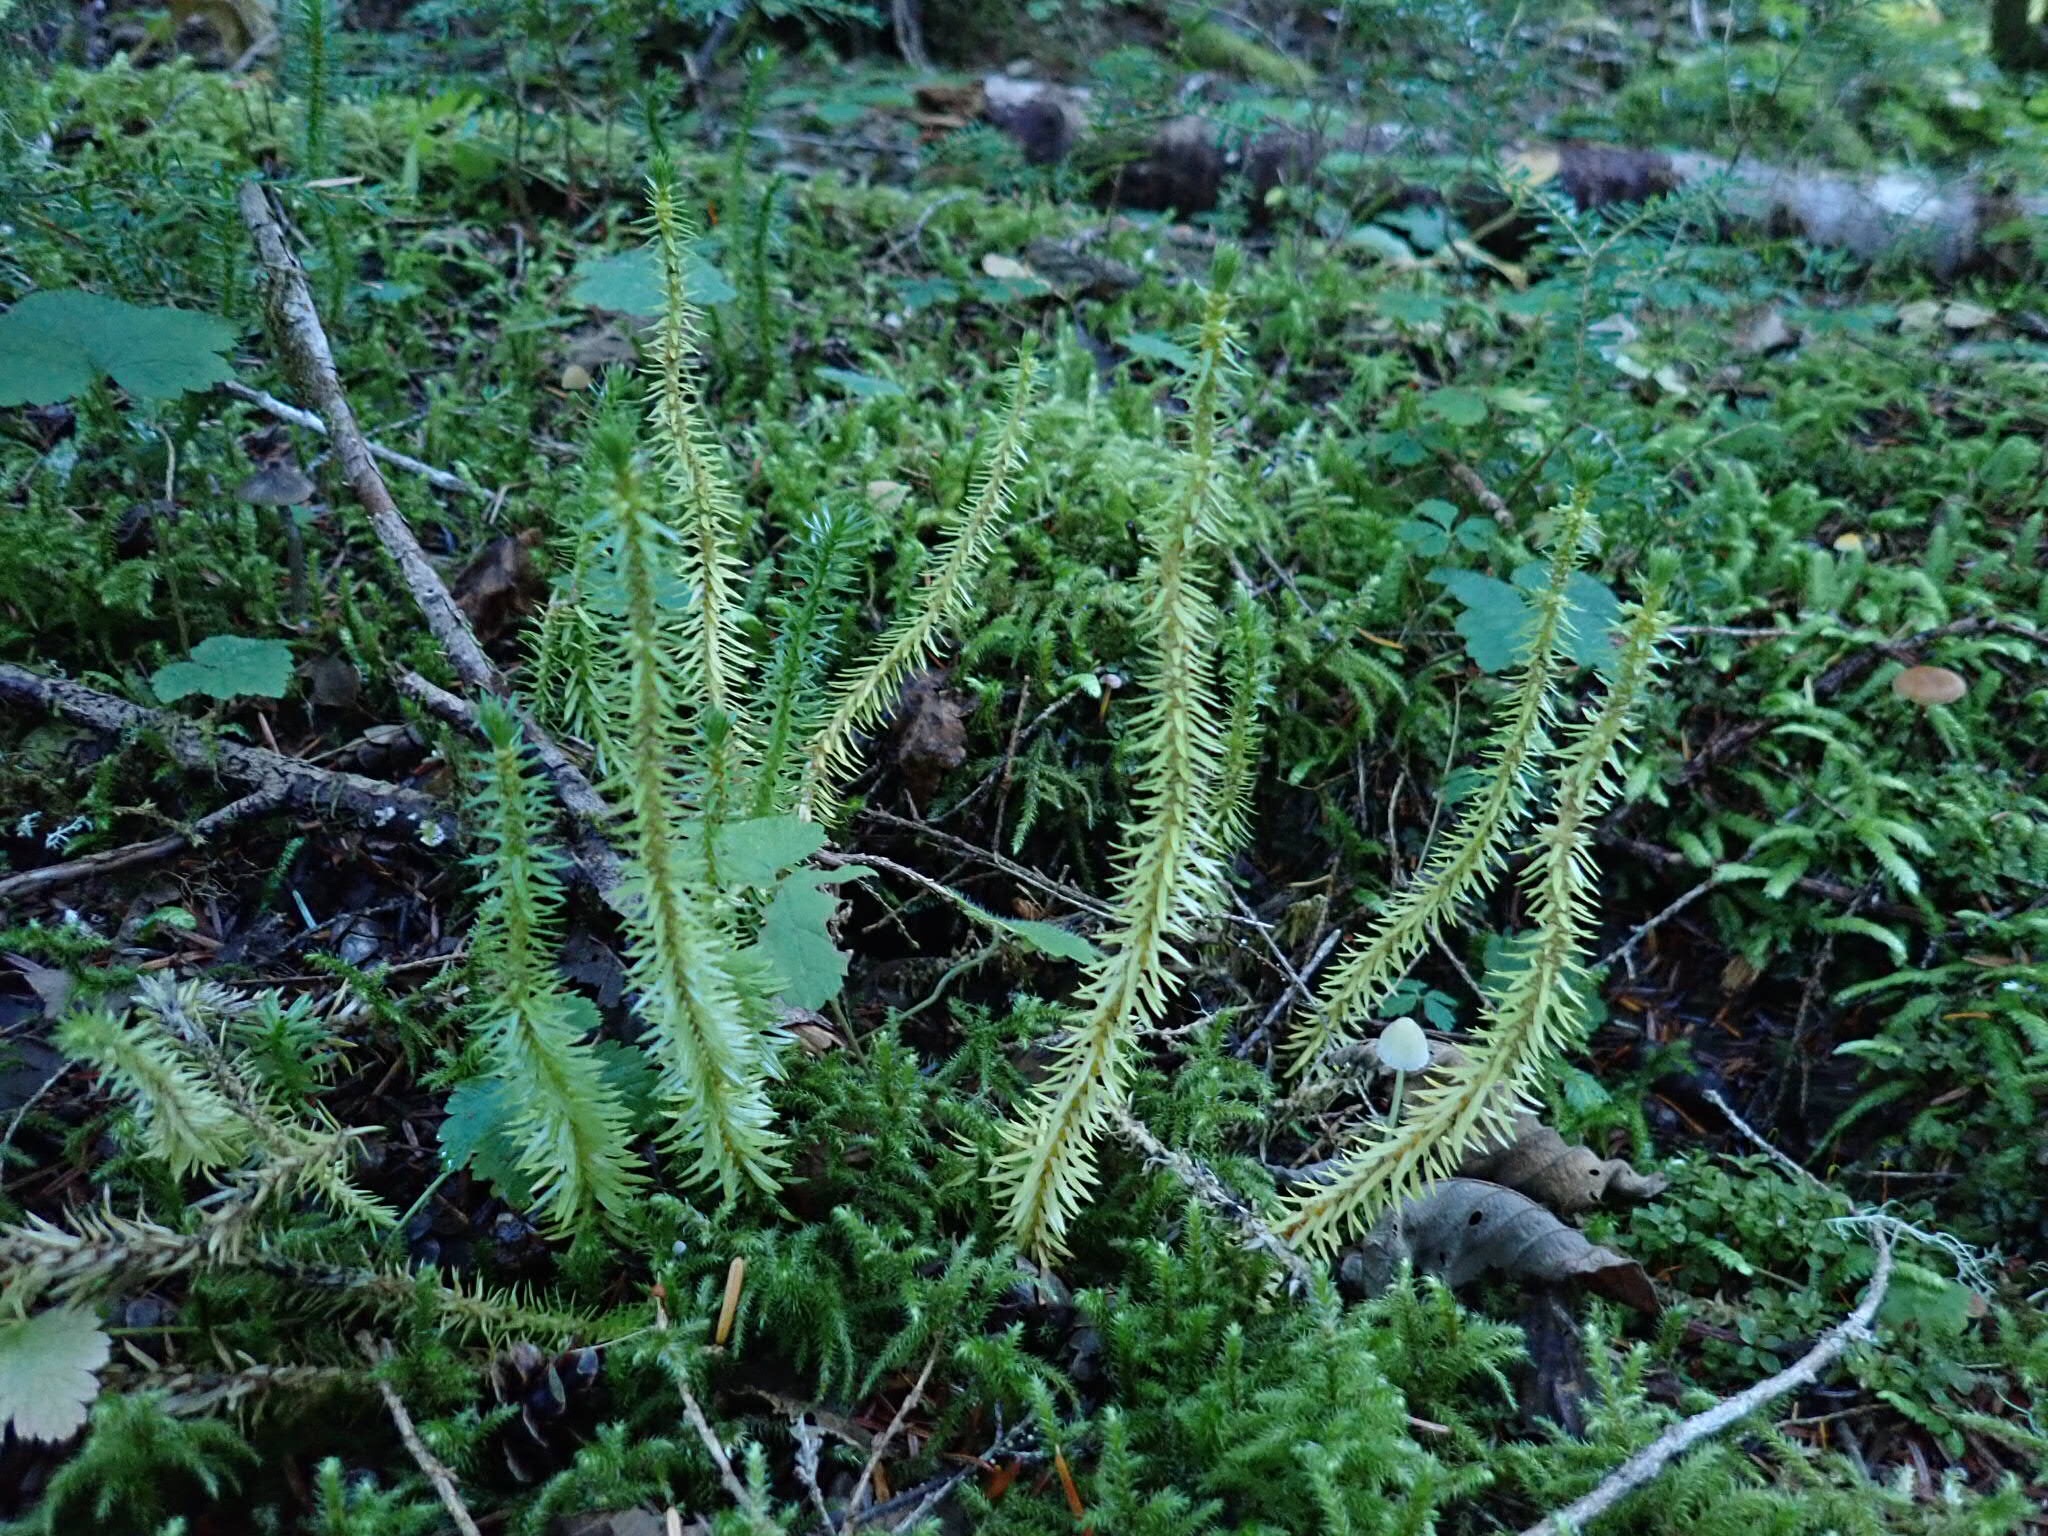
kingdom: Plantae
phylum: Tracheophyta
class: Lycopodiopsida
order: Lycopodiales
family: Lycopodiaceae
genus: Huperzia
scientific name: Huperzia occidentalis
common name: Western clubmoss
